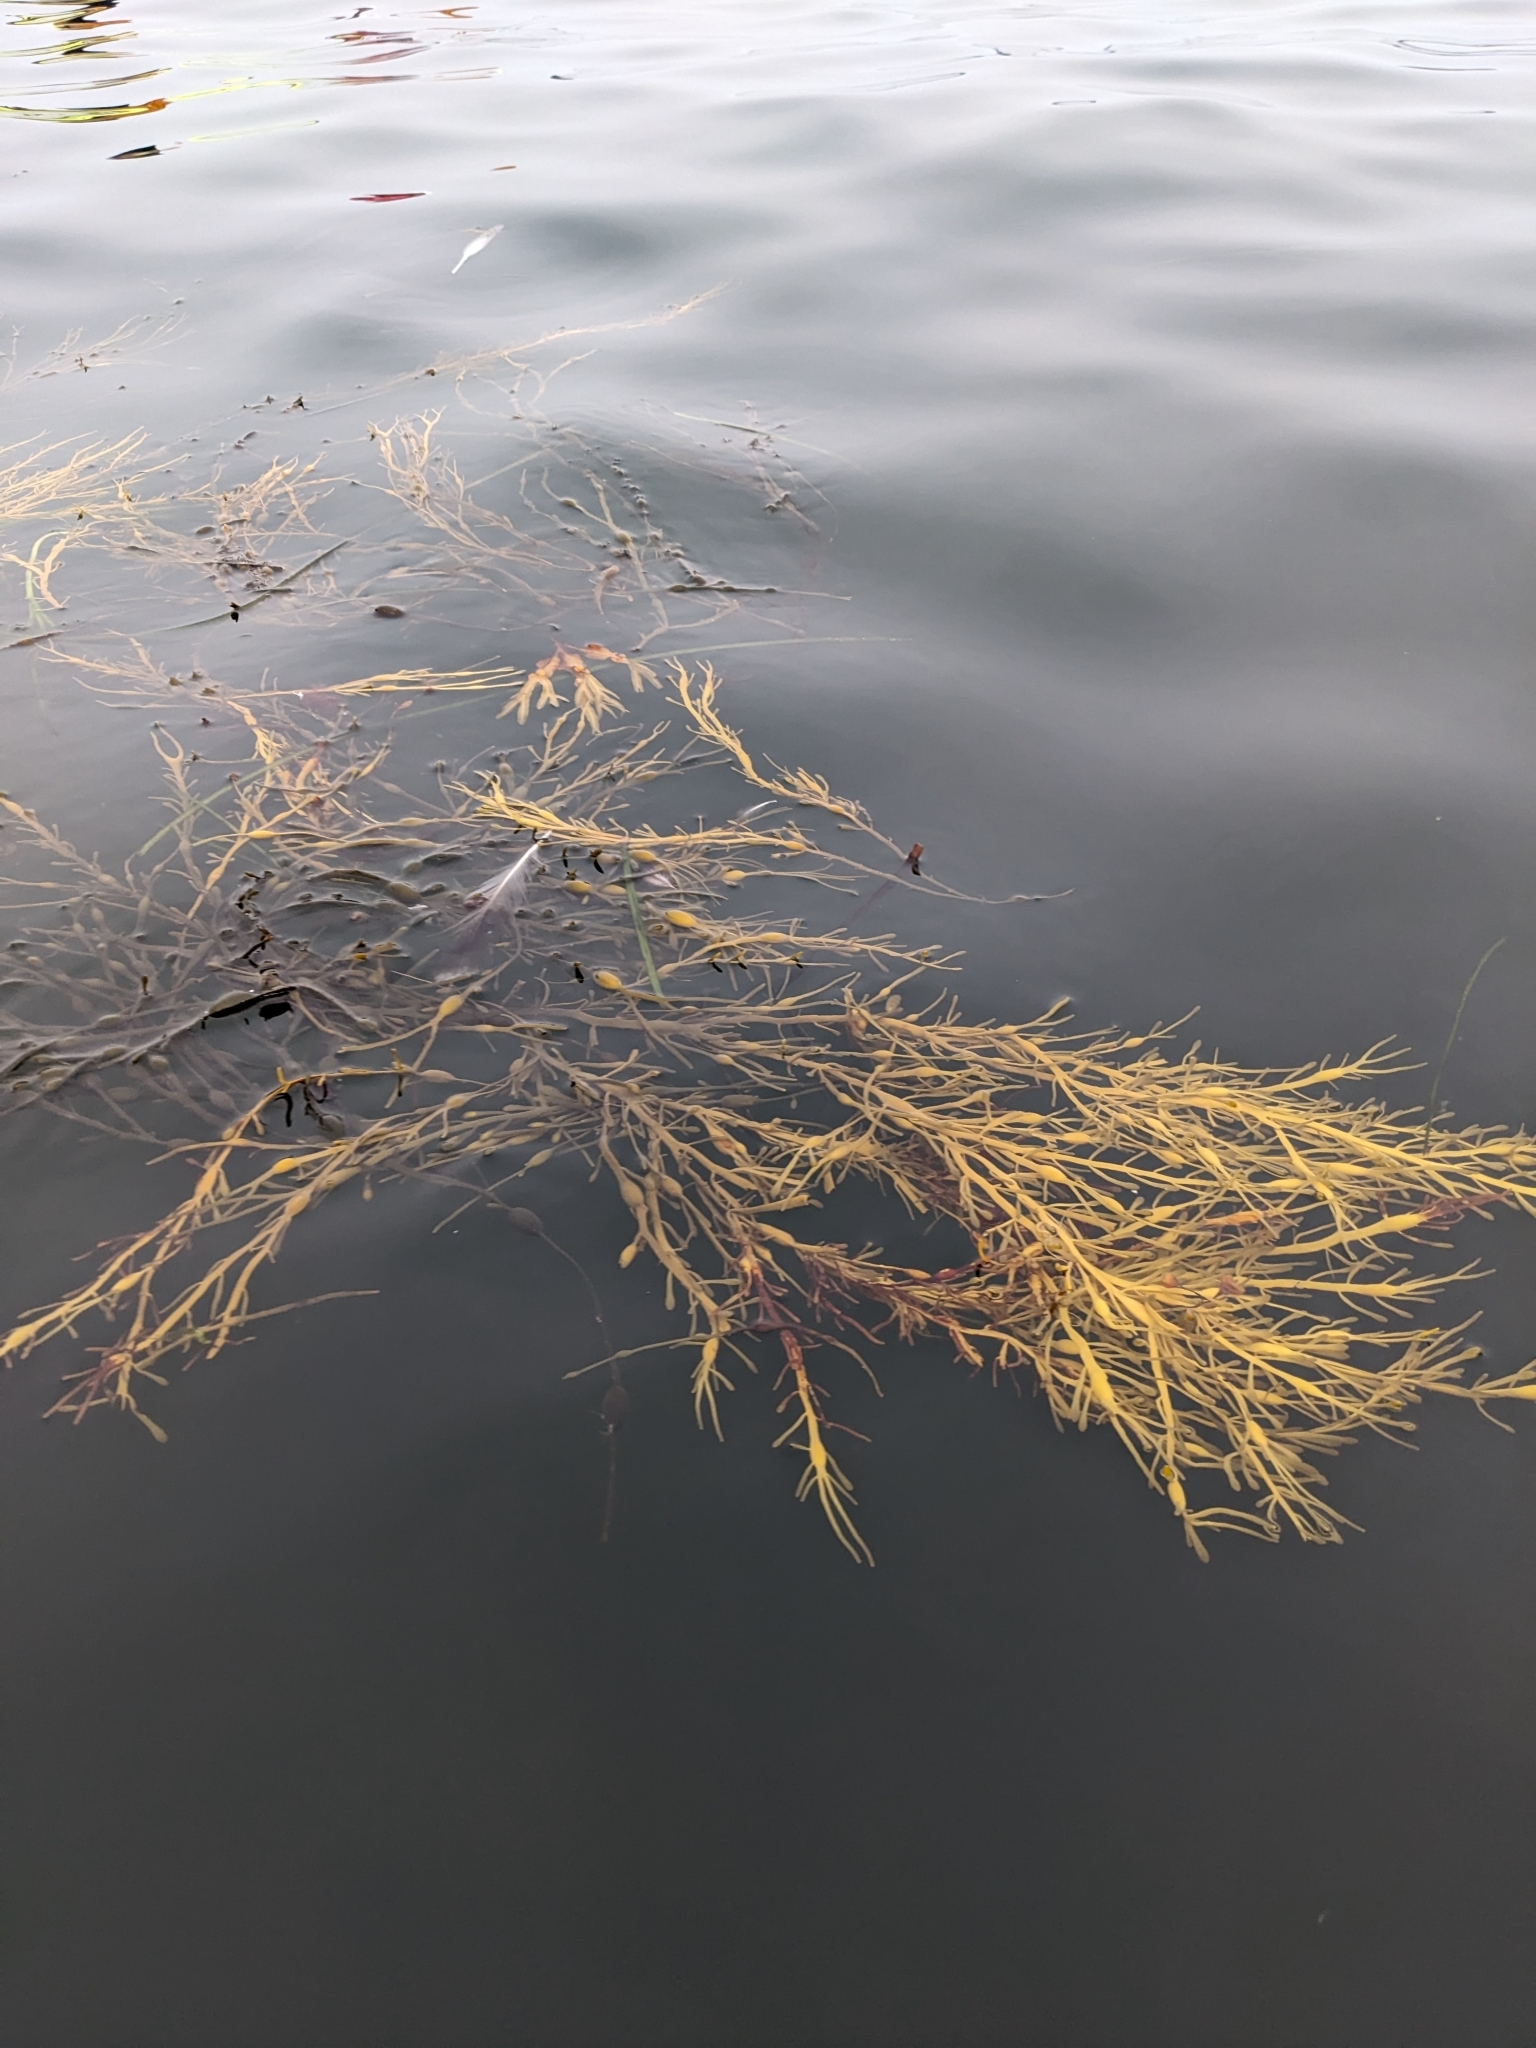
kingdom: Chromista
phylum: Ochrophyta
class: Phaeophyceae
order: Fucales
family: Fucaceae
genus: Ascophyllum
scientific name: Ascophyllum nodosum
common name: Knotted wrack
